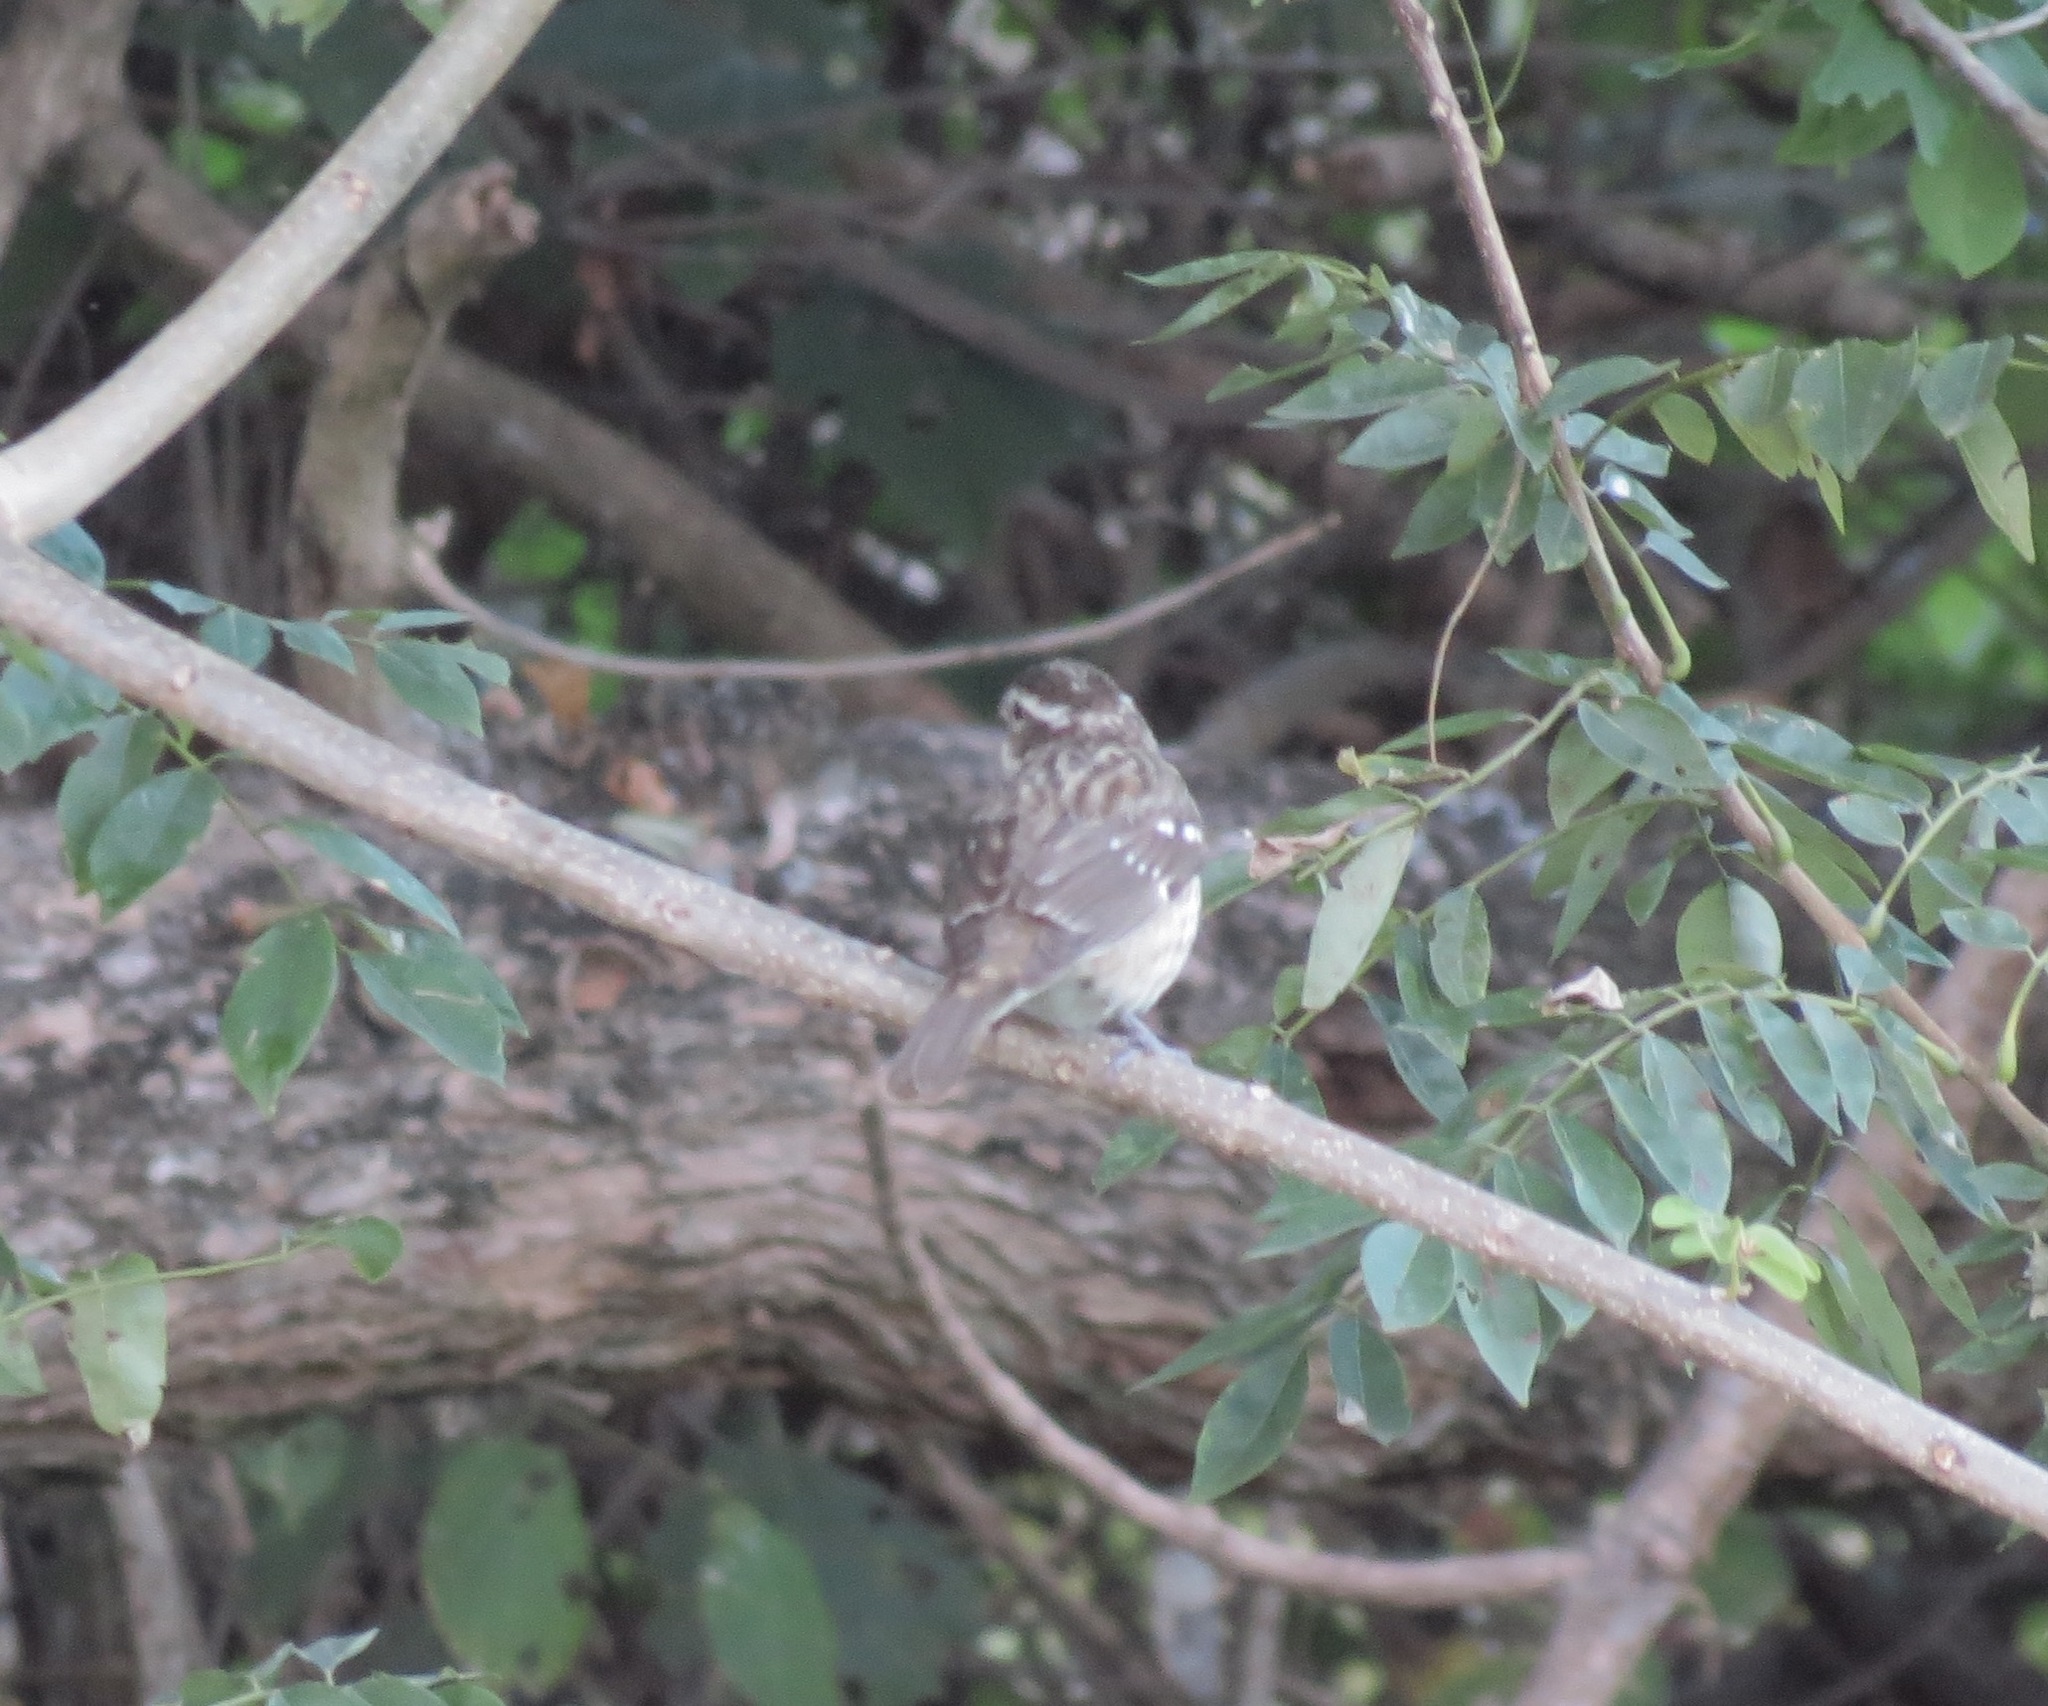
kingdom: Animalia
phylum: Chordata
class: Aves
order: Passeriformes
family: Cardinalidae
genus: Pheucticus
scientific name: Pheucticus ludovicianus
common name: Rose-breasted grosbeak
